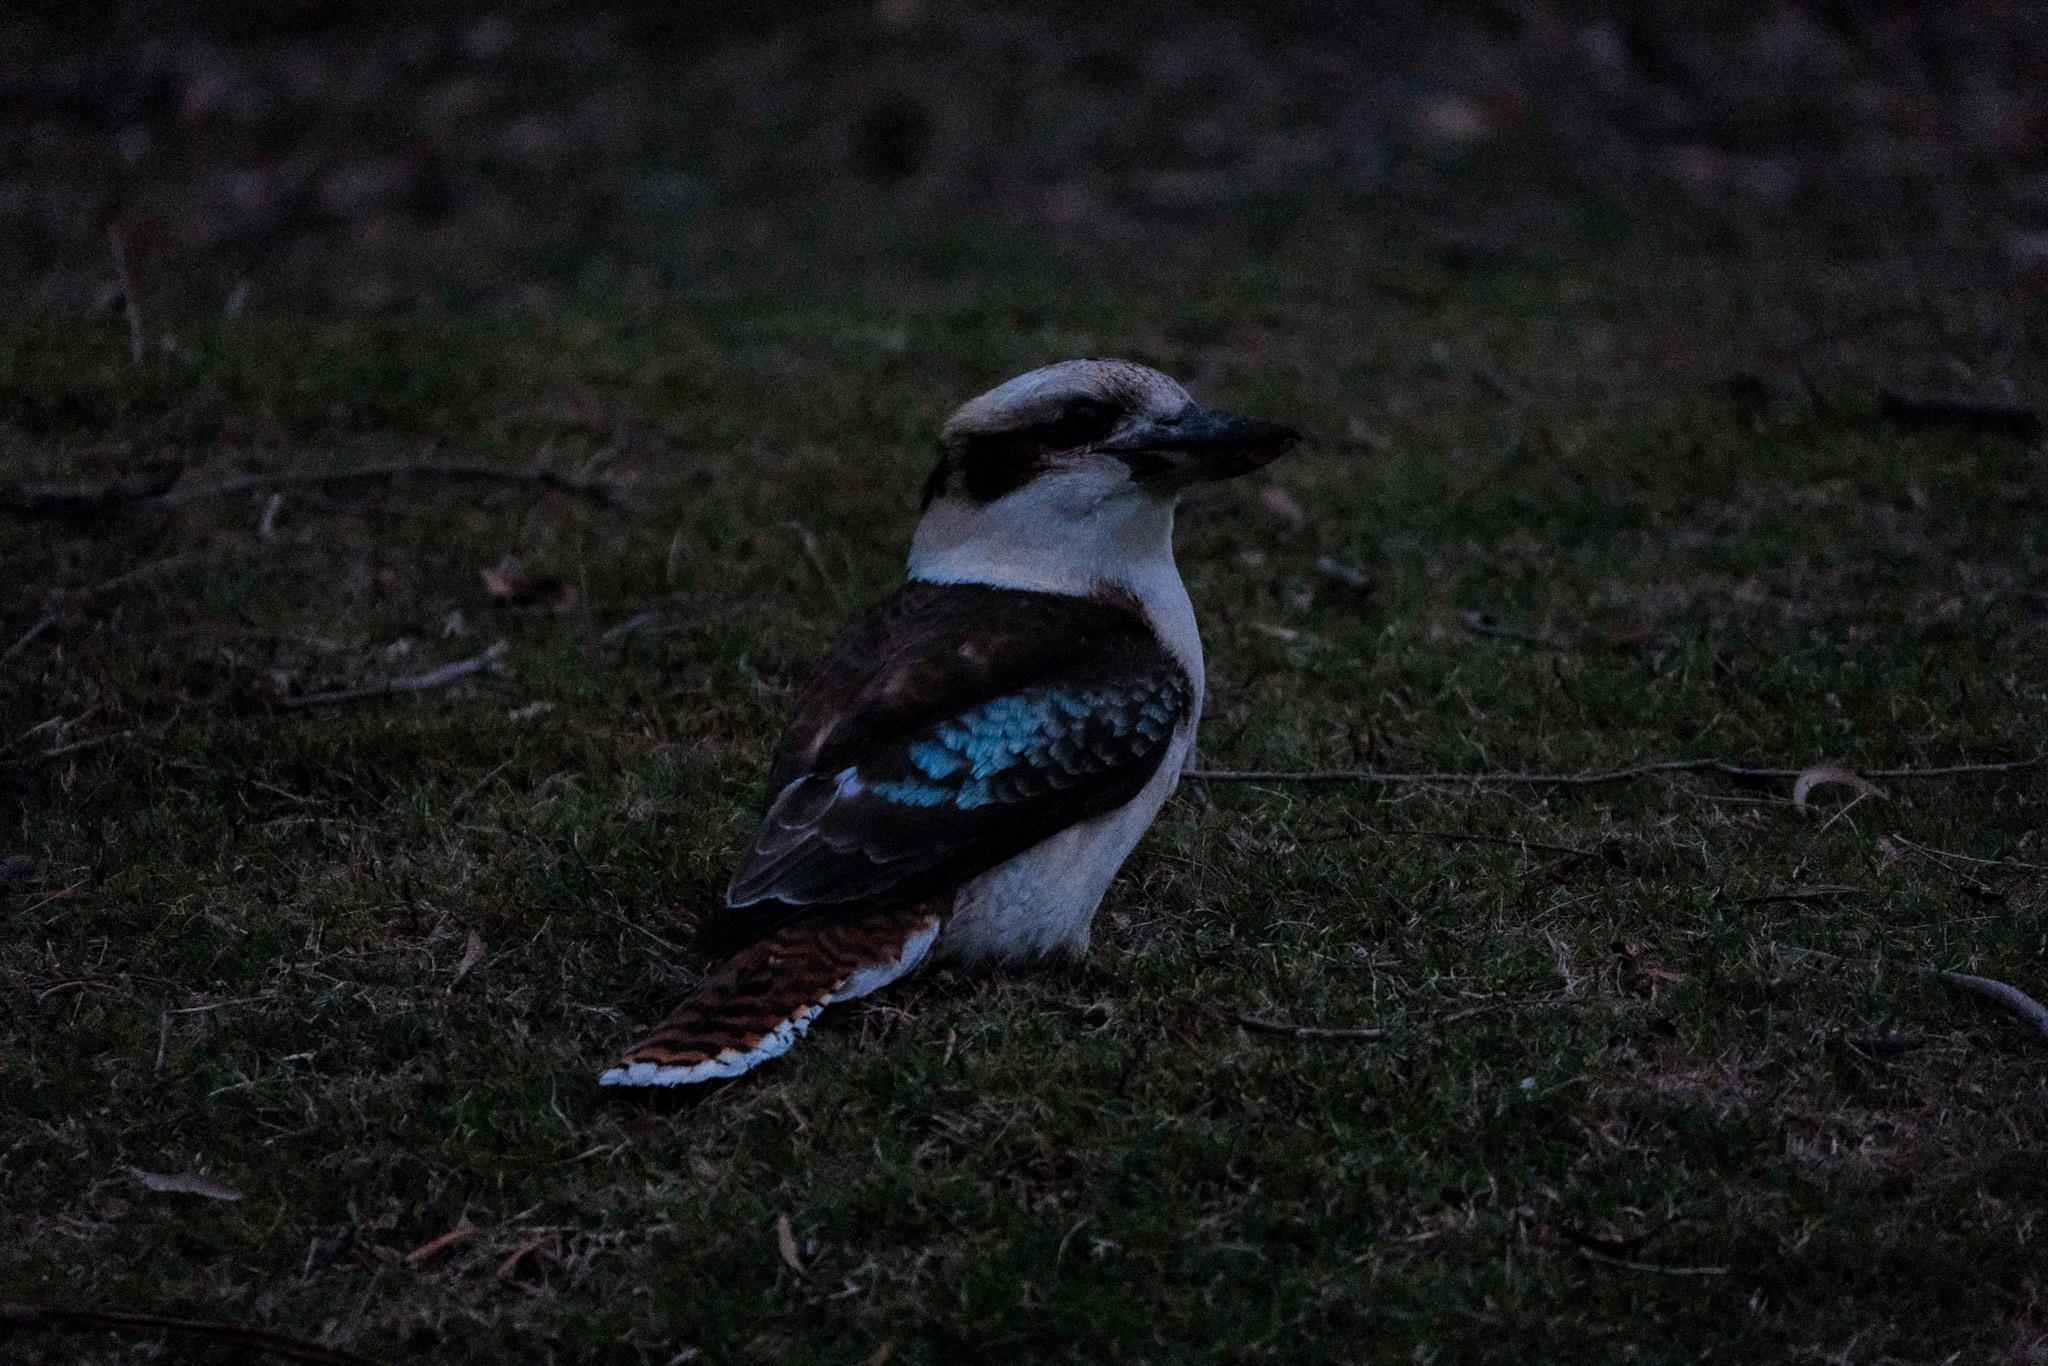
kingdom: Animalia
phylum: Chordata
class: Aves
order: Coraciiformes
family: Alcedinidae
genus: Dacelo
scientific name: Dacelo novaeguineae
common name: Laughing kookaburra
